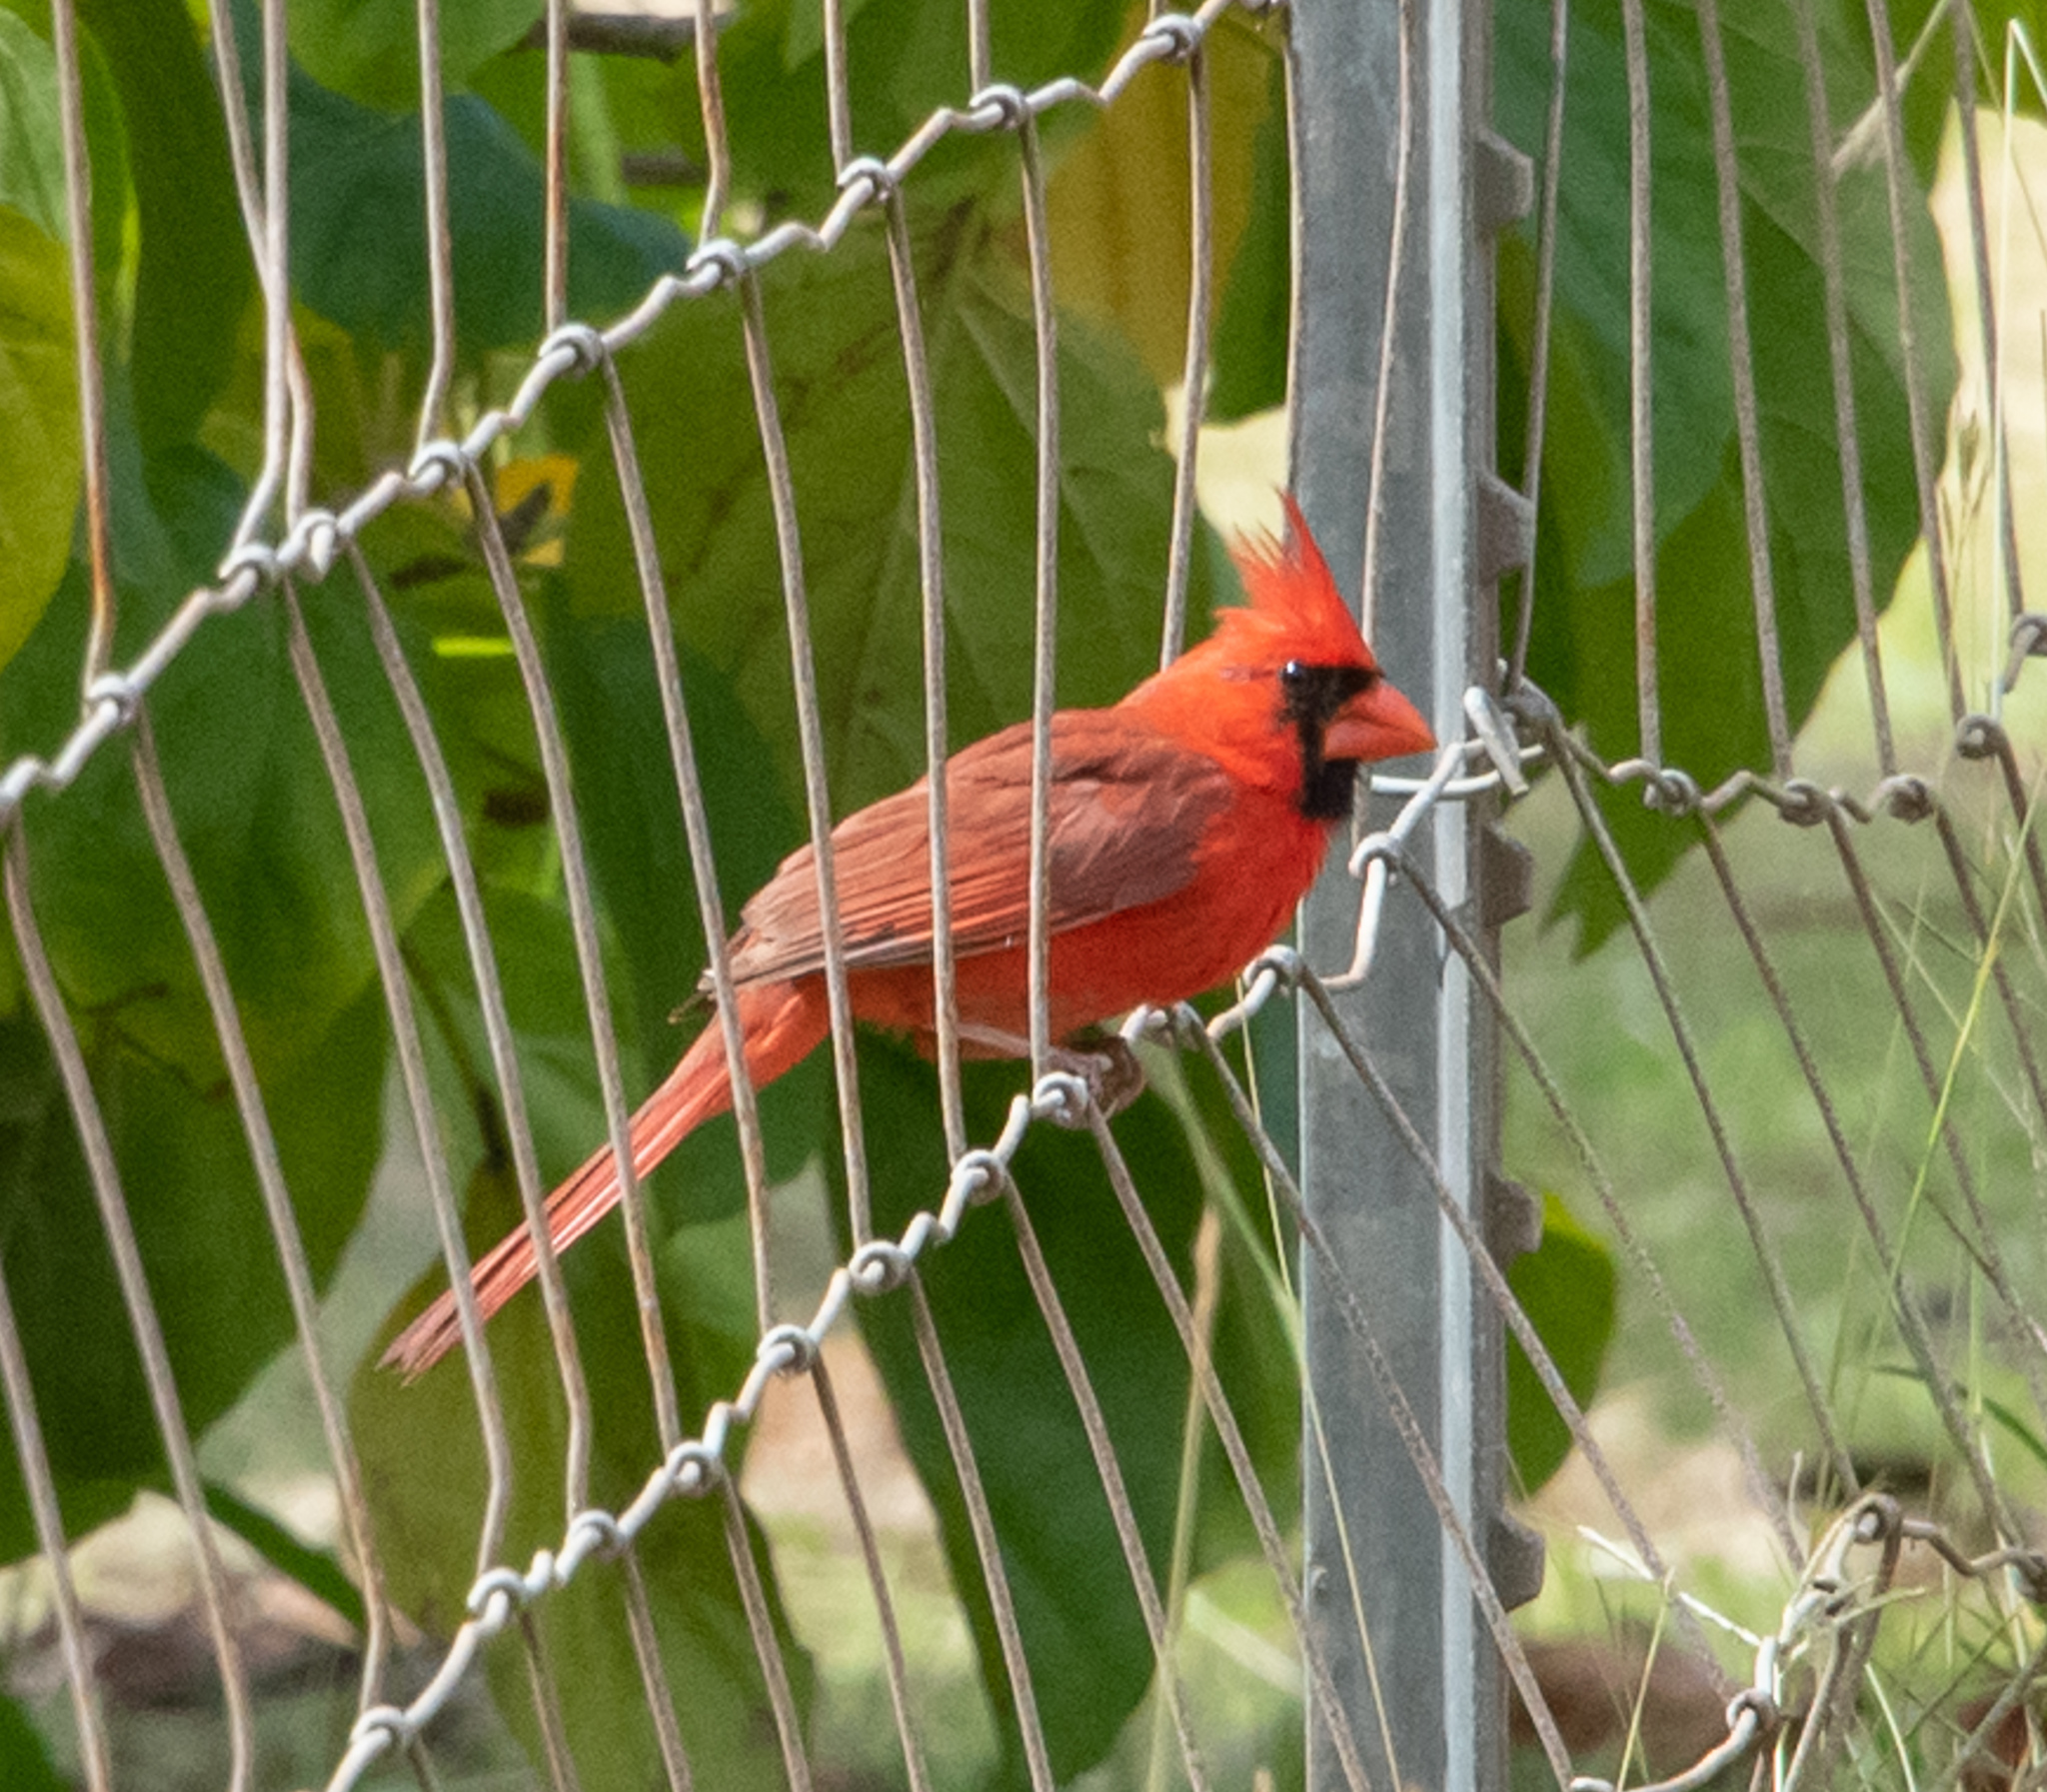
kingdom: Animalia
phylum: Chordata
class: Aves
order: Passeriformes
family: Cardinalidae
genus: Cardinalis
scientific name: Cardinalis cardinalis
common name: Northern cardinal
